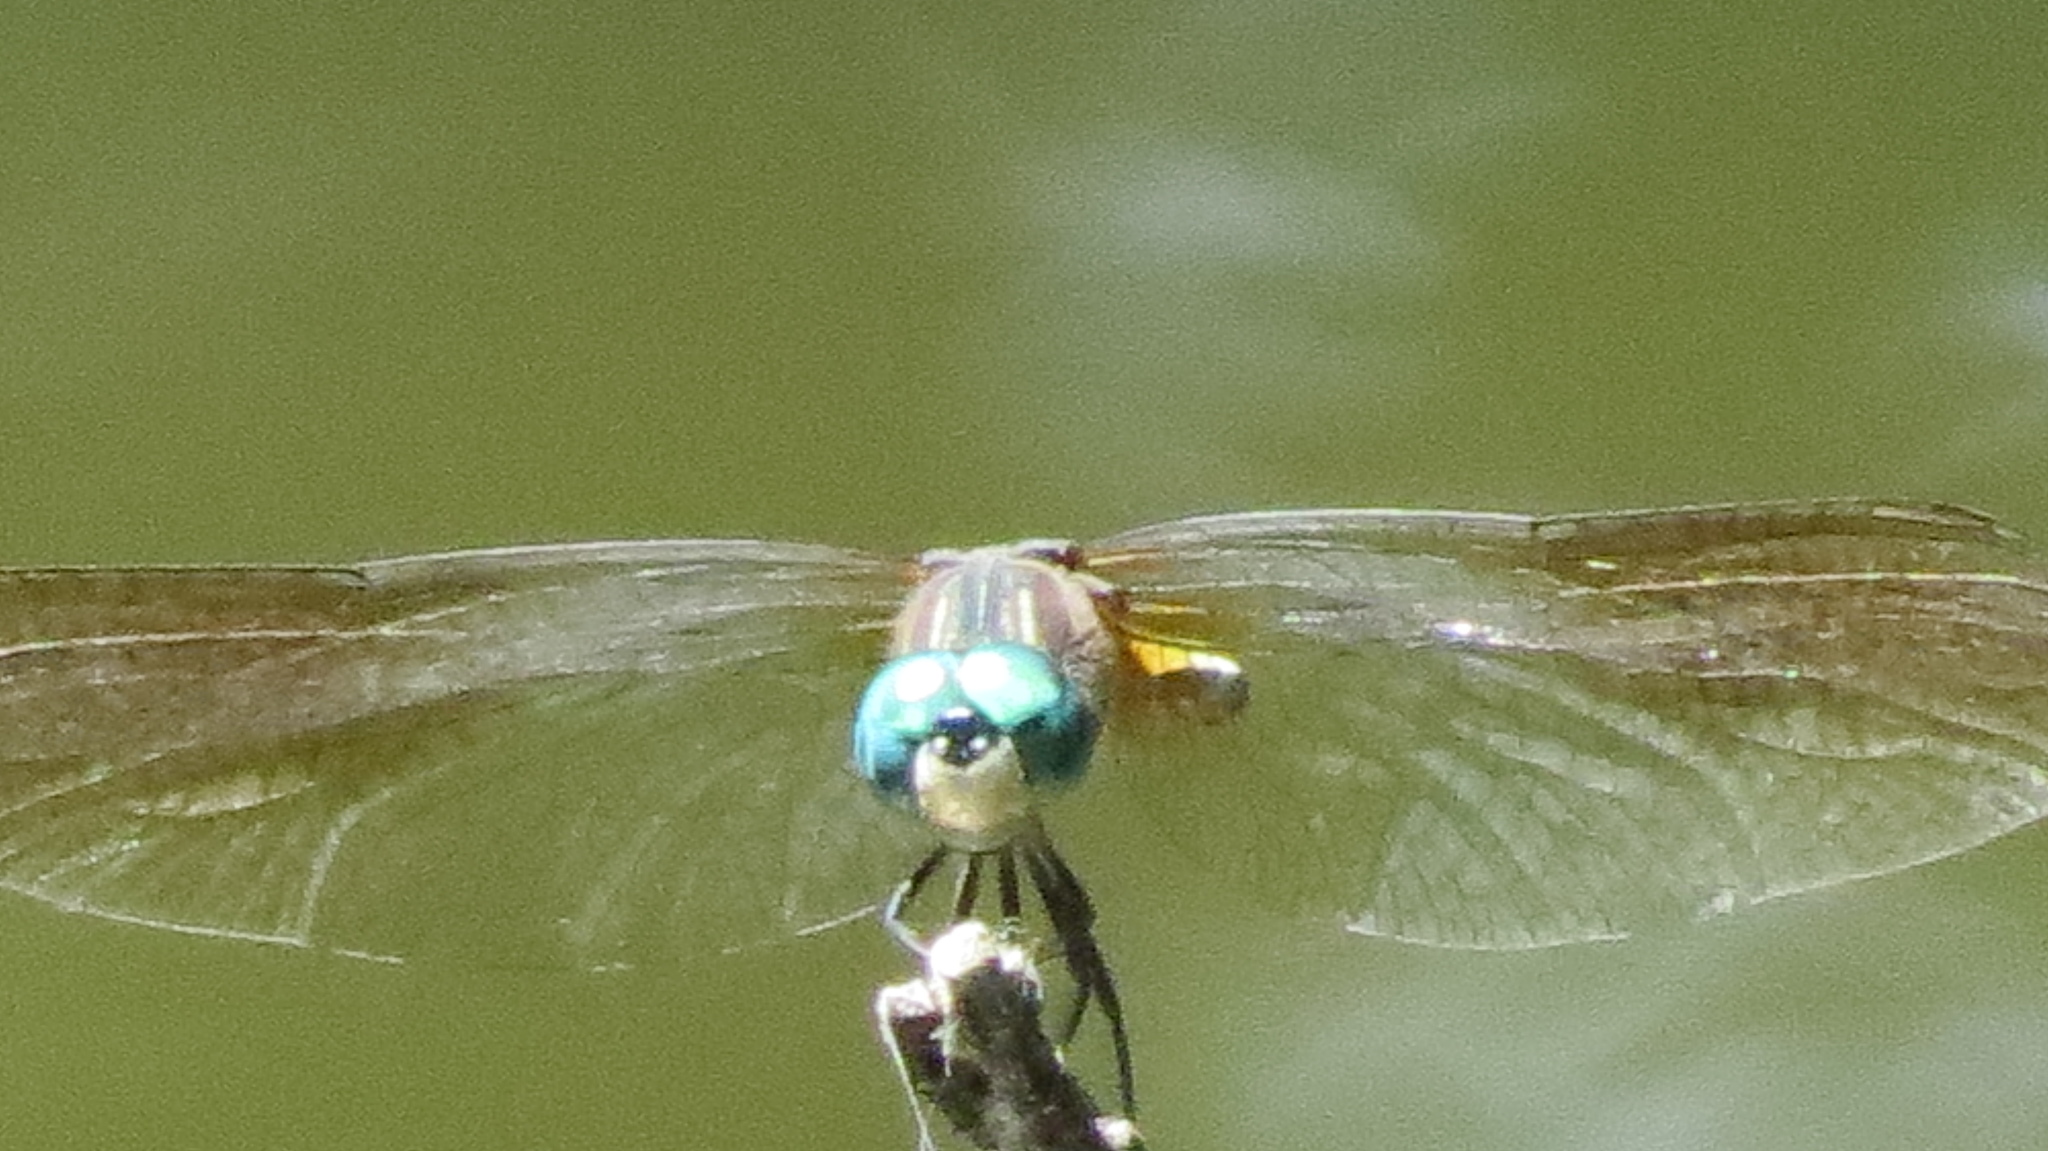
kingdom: Animalia
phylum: Arthropoda
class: Insecta
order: Odonata
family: Libellulidae
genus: Pachydiplax
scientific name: Pachydiplax longipennis
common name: Blue dasher
